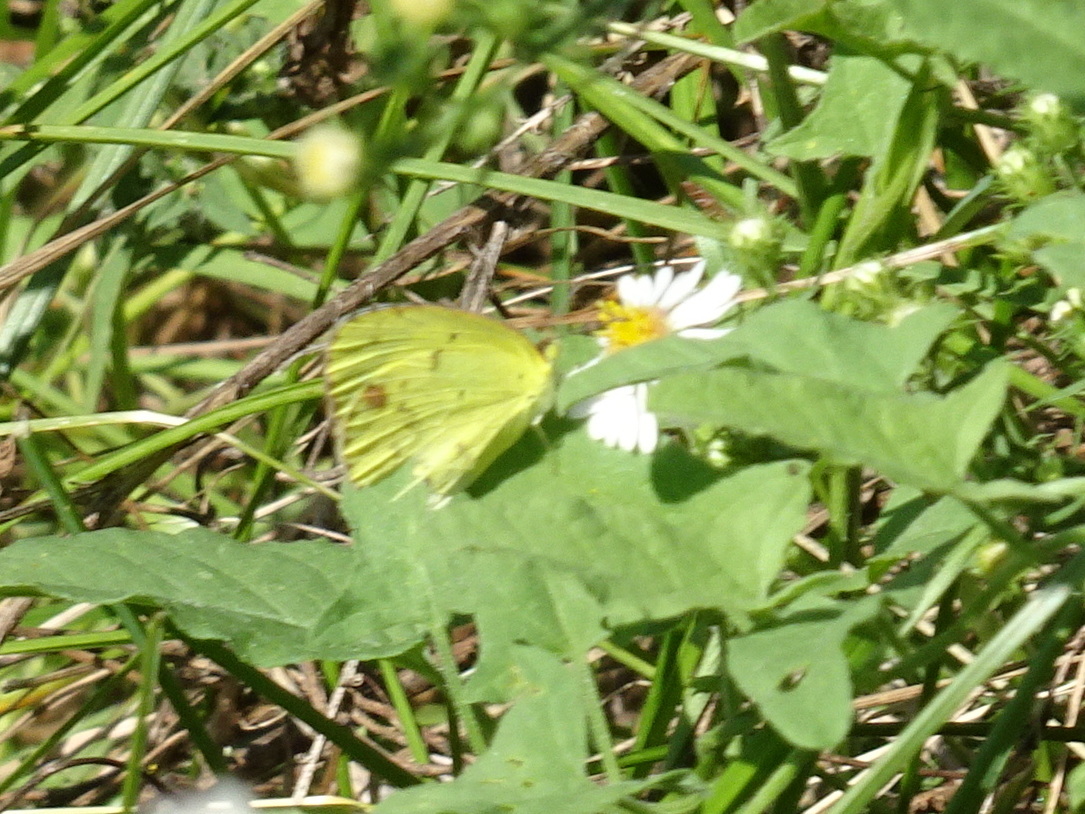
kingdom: Animalia
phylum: Arthropoda
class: Insecta
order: Lepidoptera
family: Pieridae
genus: Pyrisitia
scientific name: Pyrisitia lisa
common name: Little yellow
